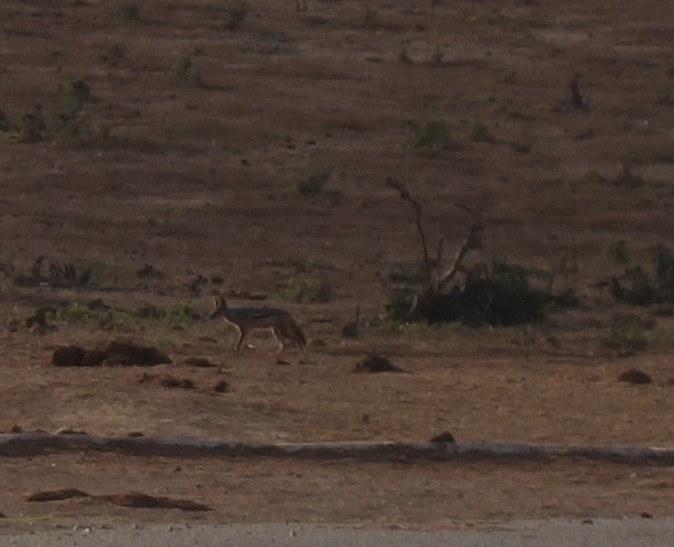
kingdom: Animalia
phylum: Chordata
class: Mammalia
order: Carnivora
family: Canidae
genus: Lupulella
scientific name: Lupulella
